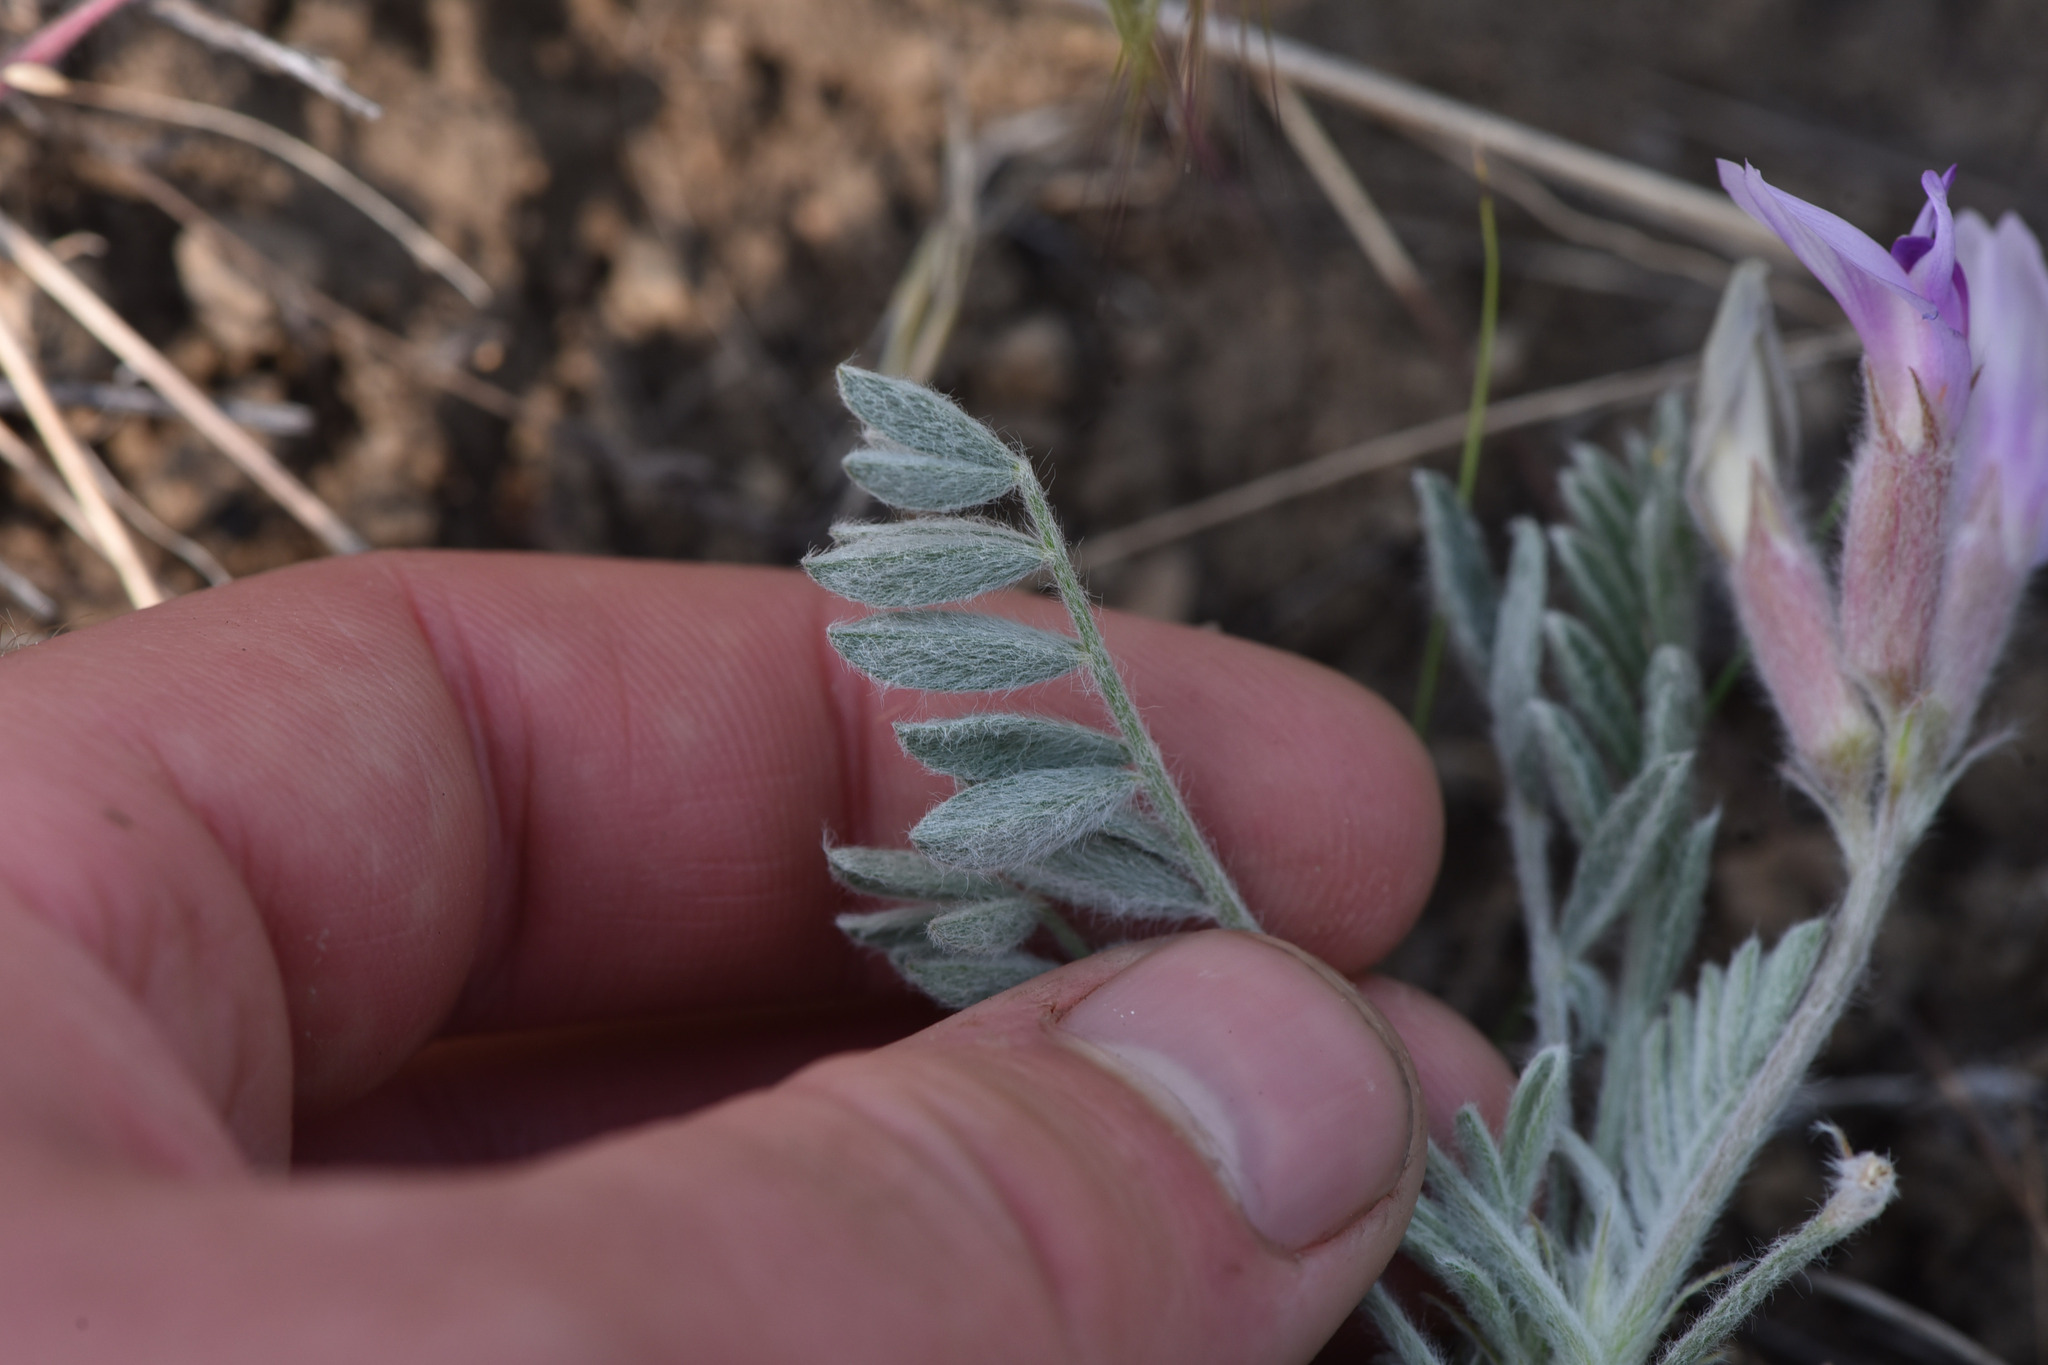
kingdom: Plantae
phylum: Tracheophyta
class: Magnoliopsida
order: Fabales
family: Fabaceae
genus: Astragalus
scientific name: Astragalus purshii
